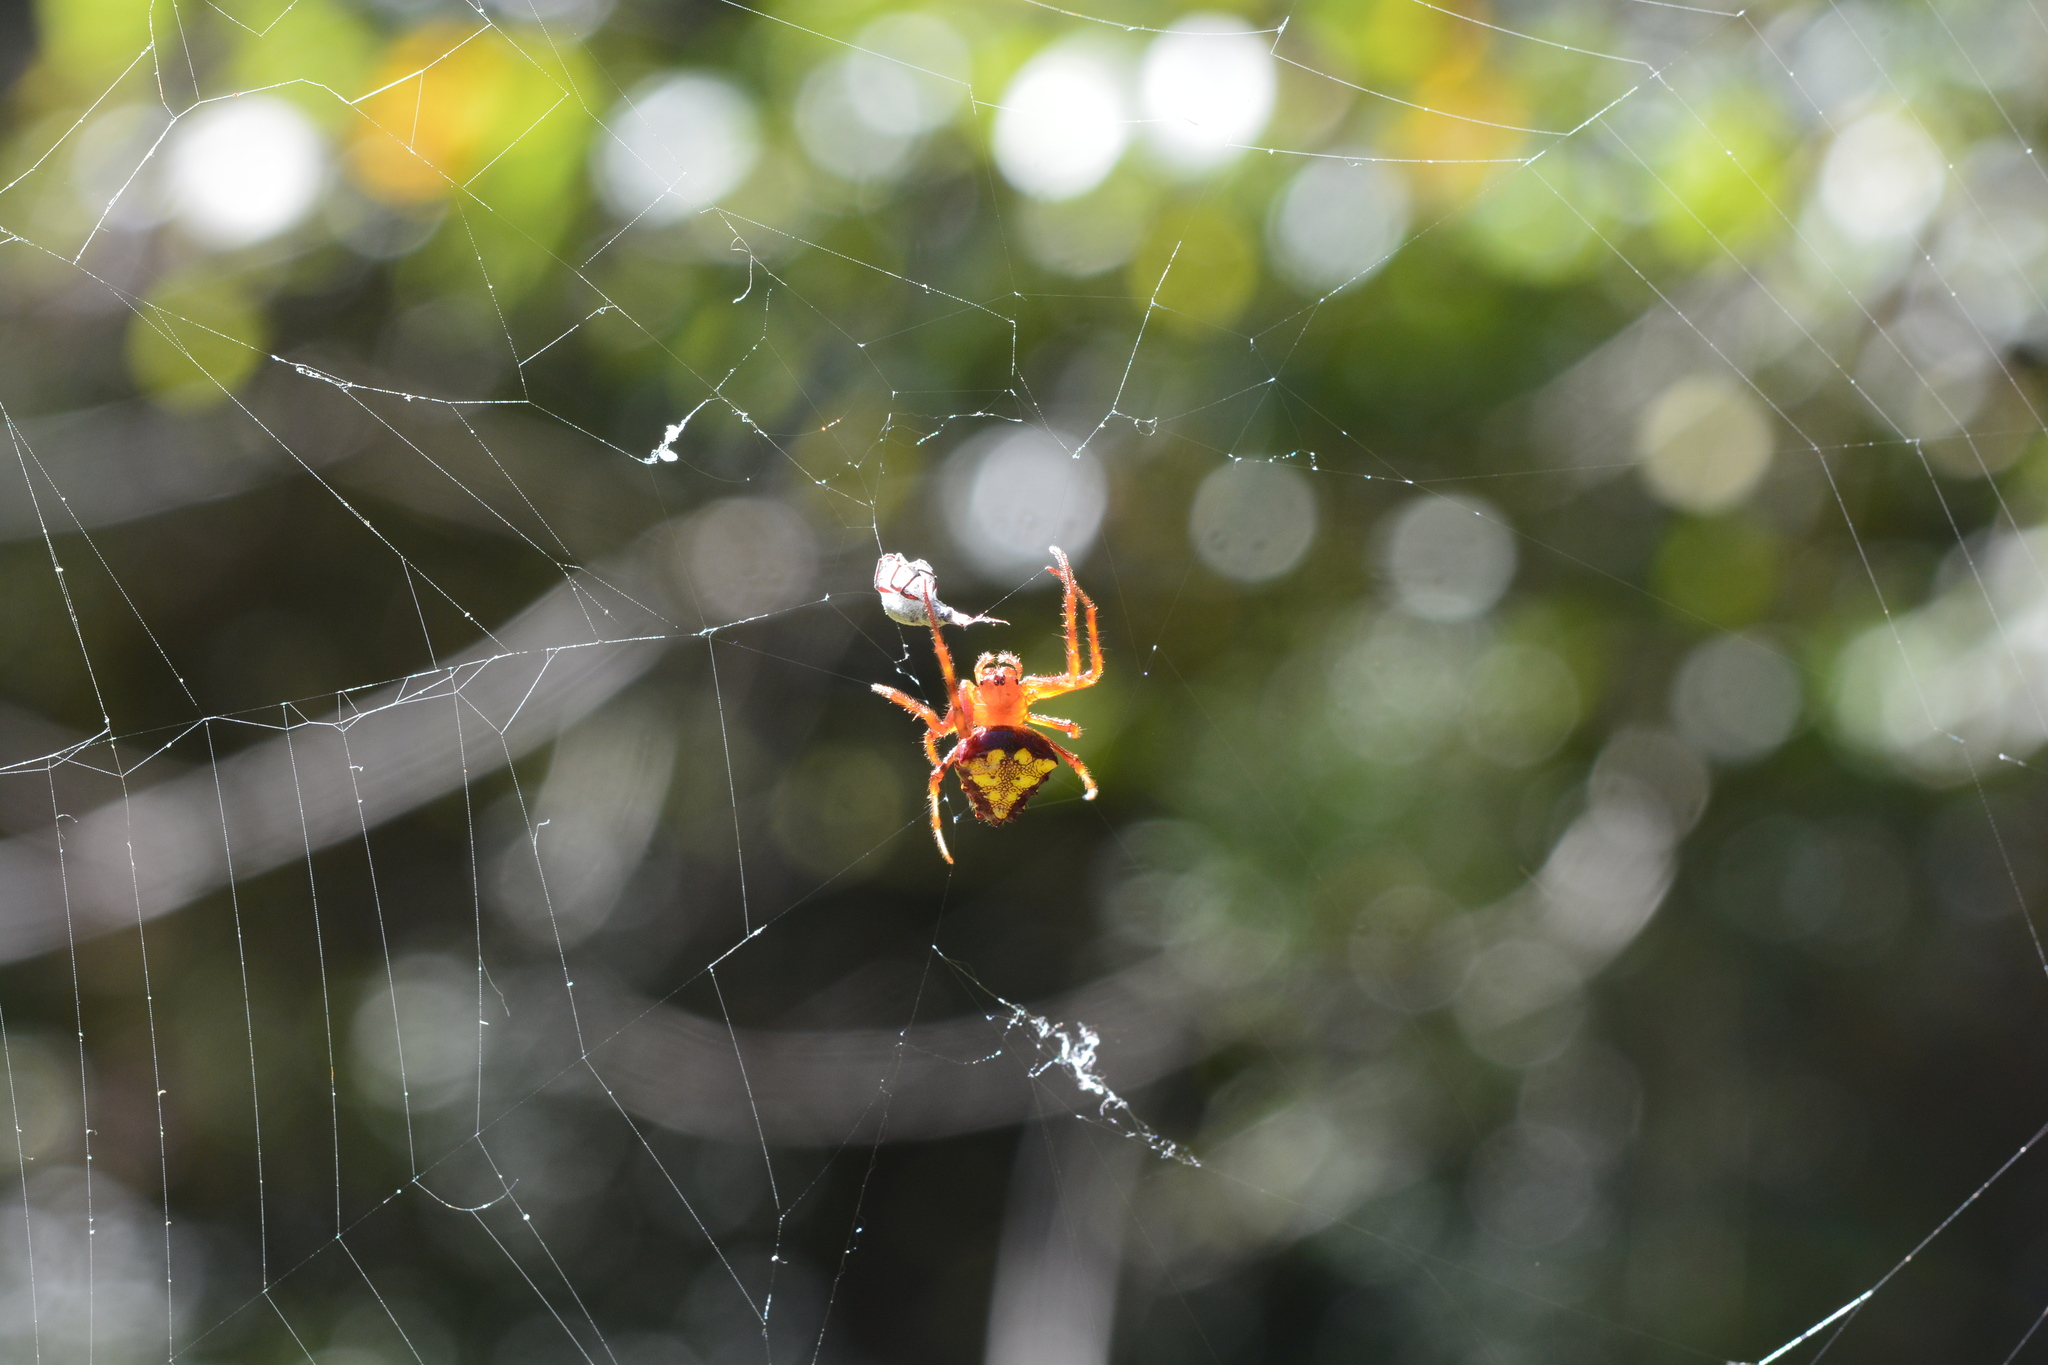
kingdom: Animalia
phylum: Arthropoda
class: Arachnida
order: Araneae
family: Araneidae
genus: Verrucosa
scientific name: Verrucosa arenata
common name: Orb weavers
